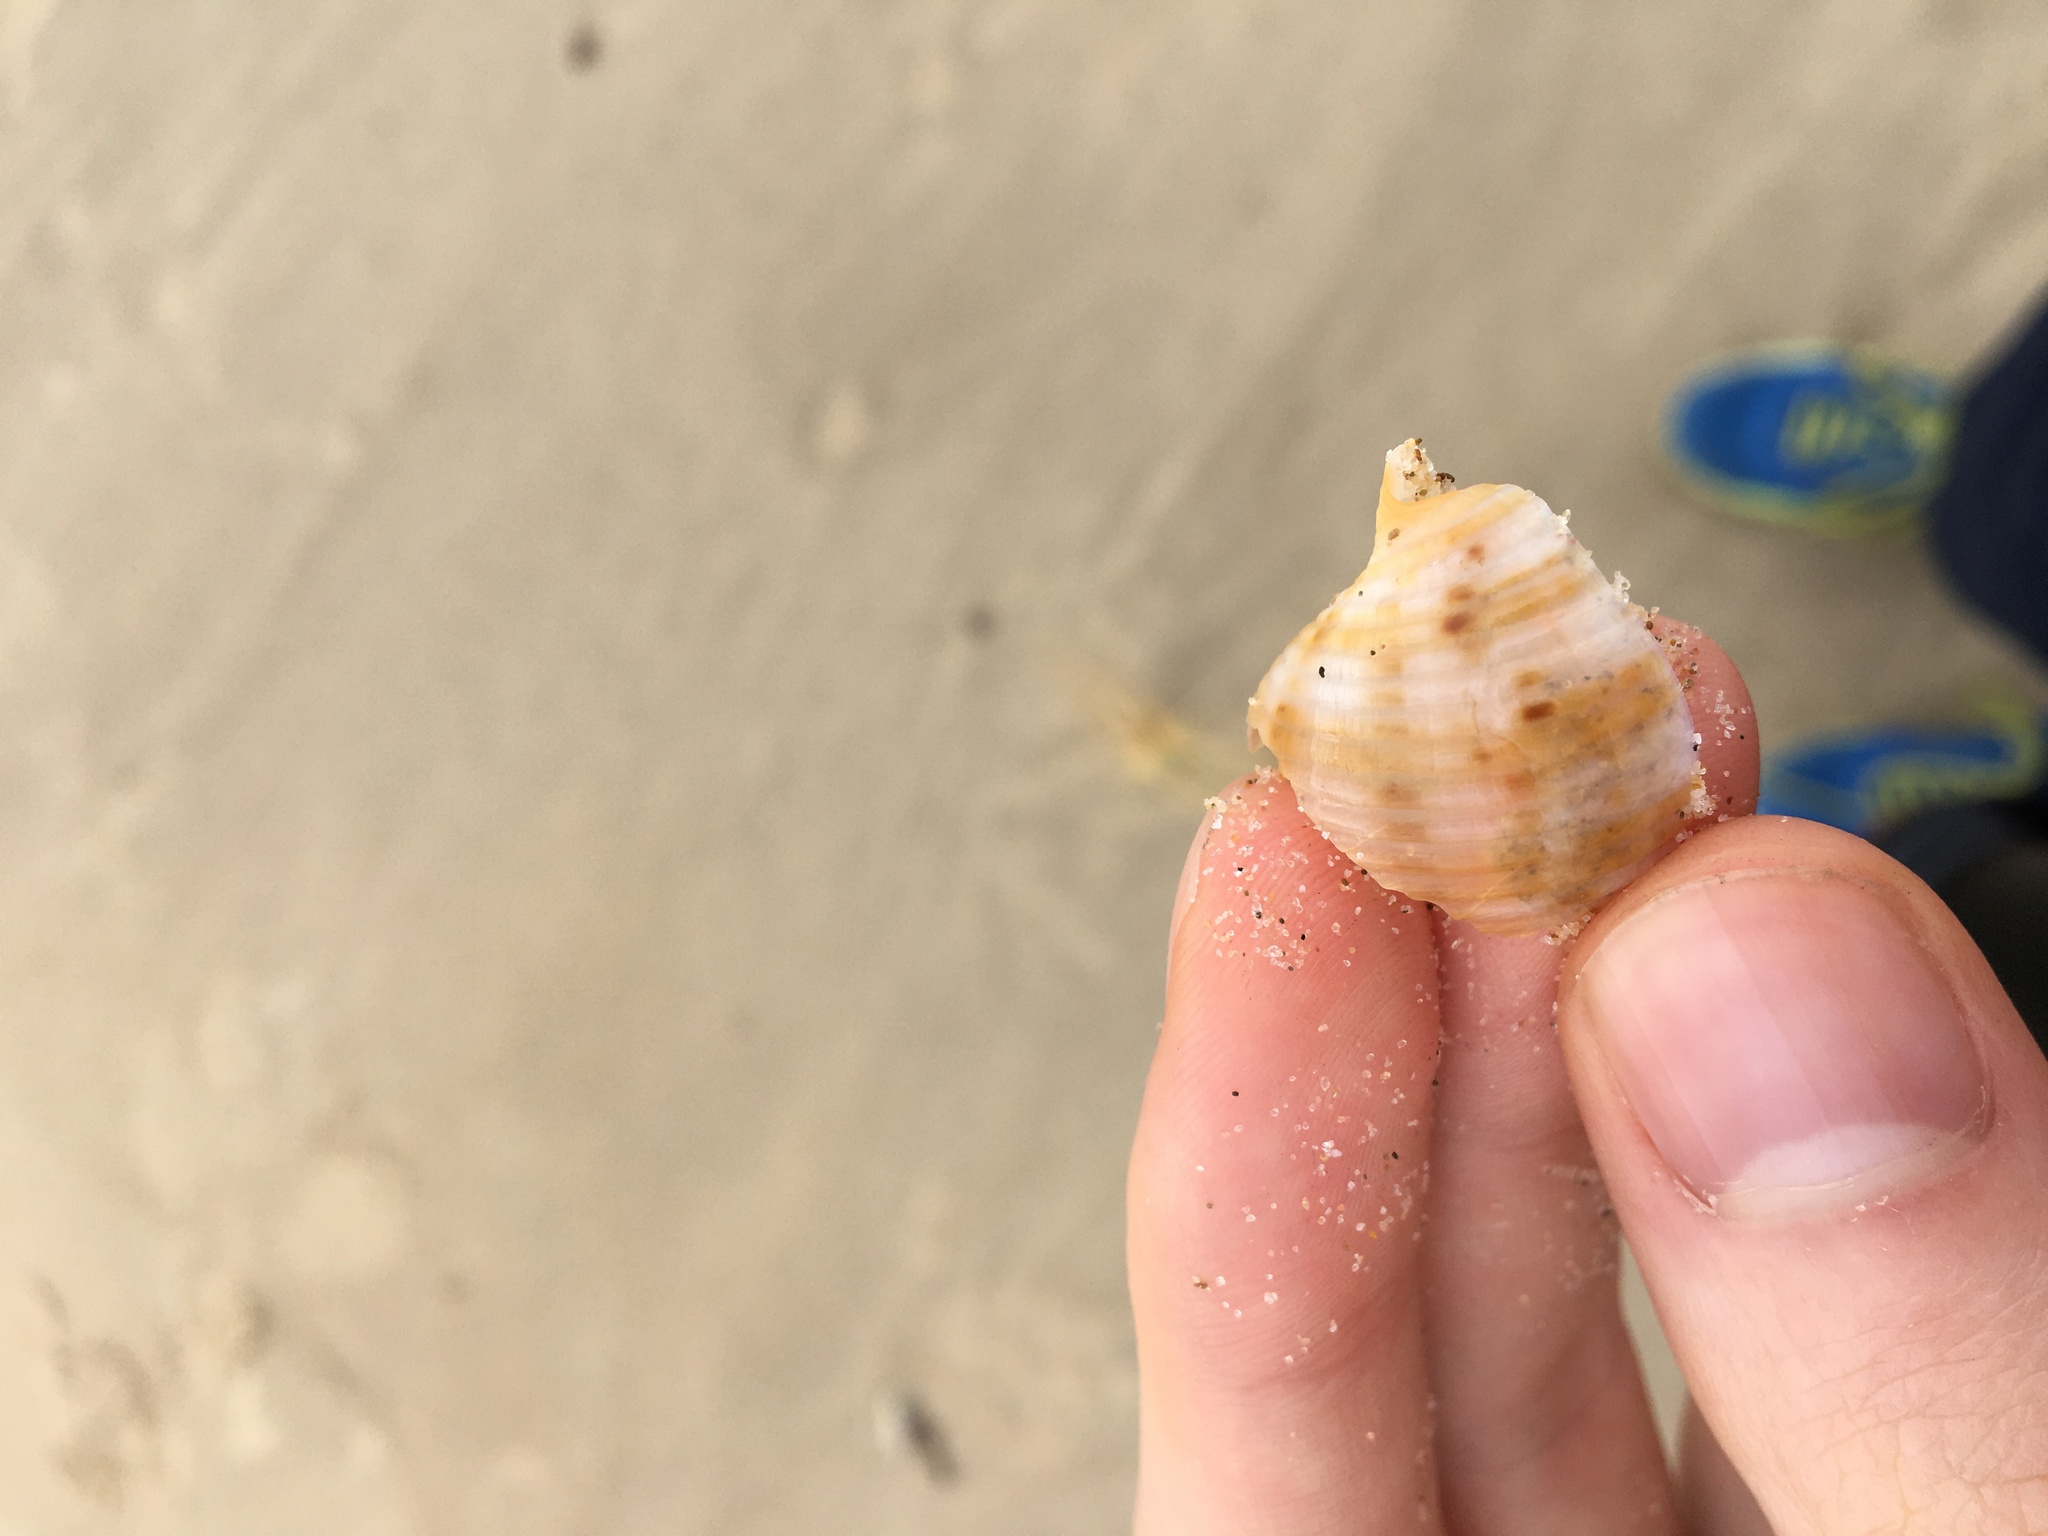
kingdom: Animalia
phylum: Mollusca
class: Gastropoda
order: Littorinimorpha
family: Tonnidae
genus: Tonna
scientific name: Tonna tankervillii
